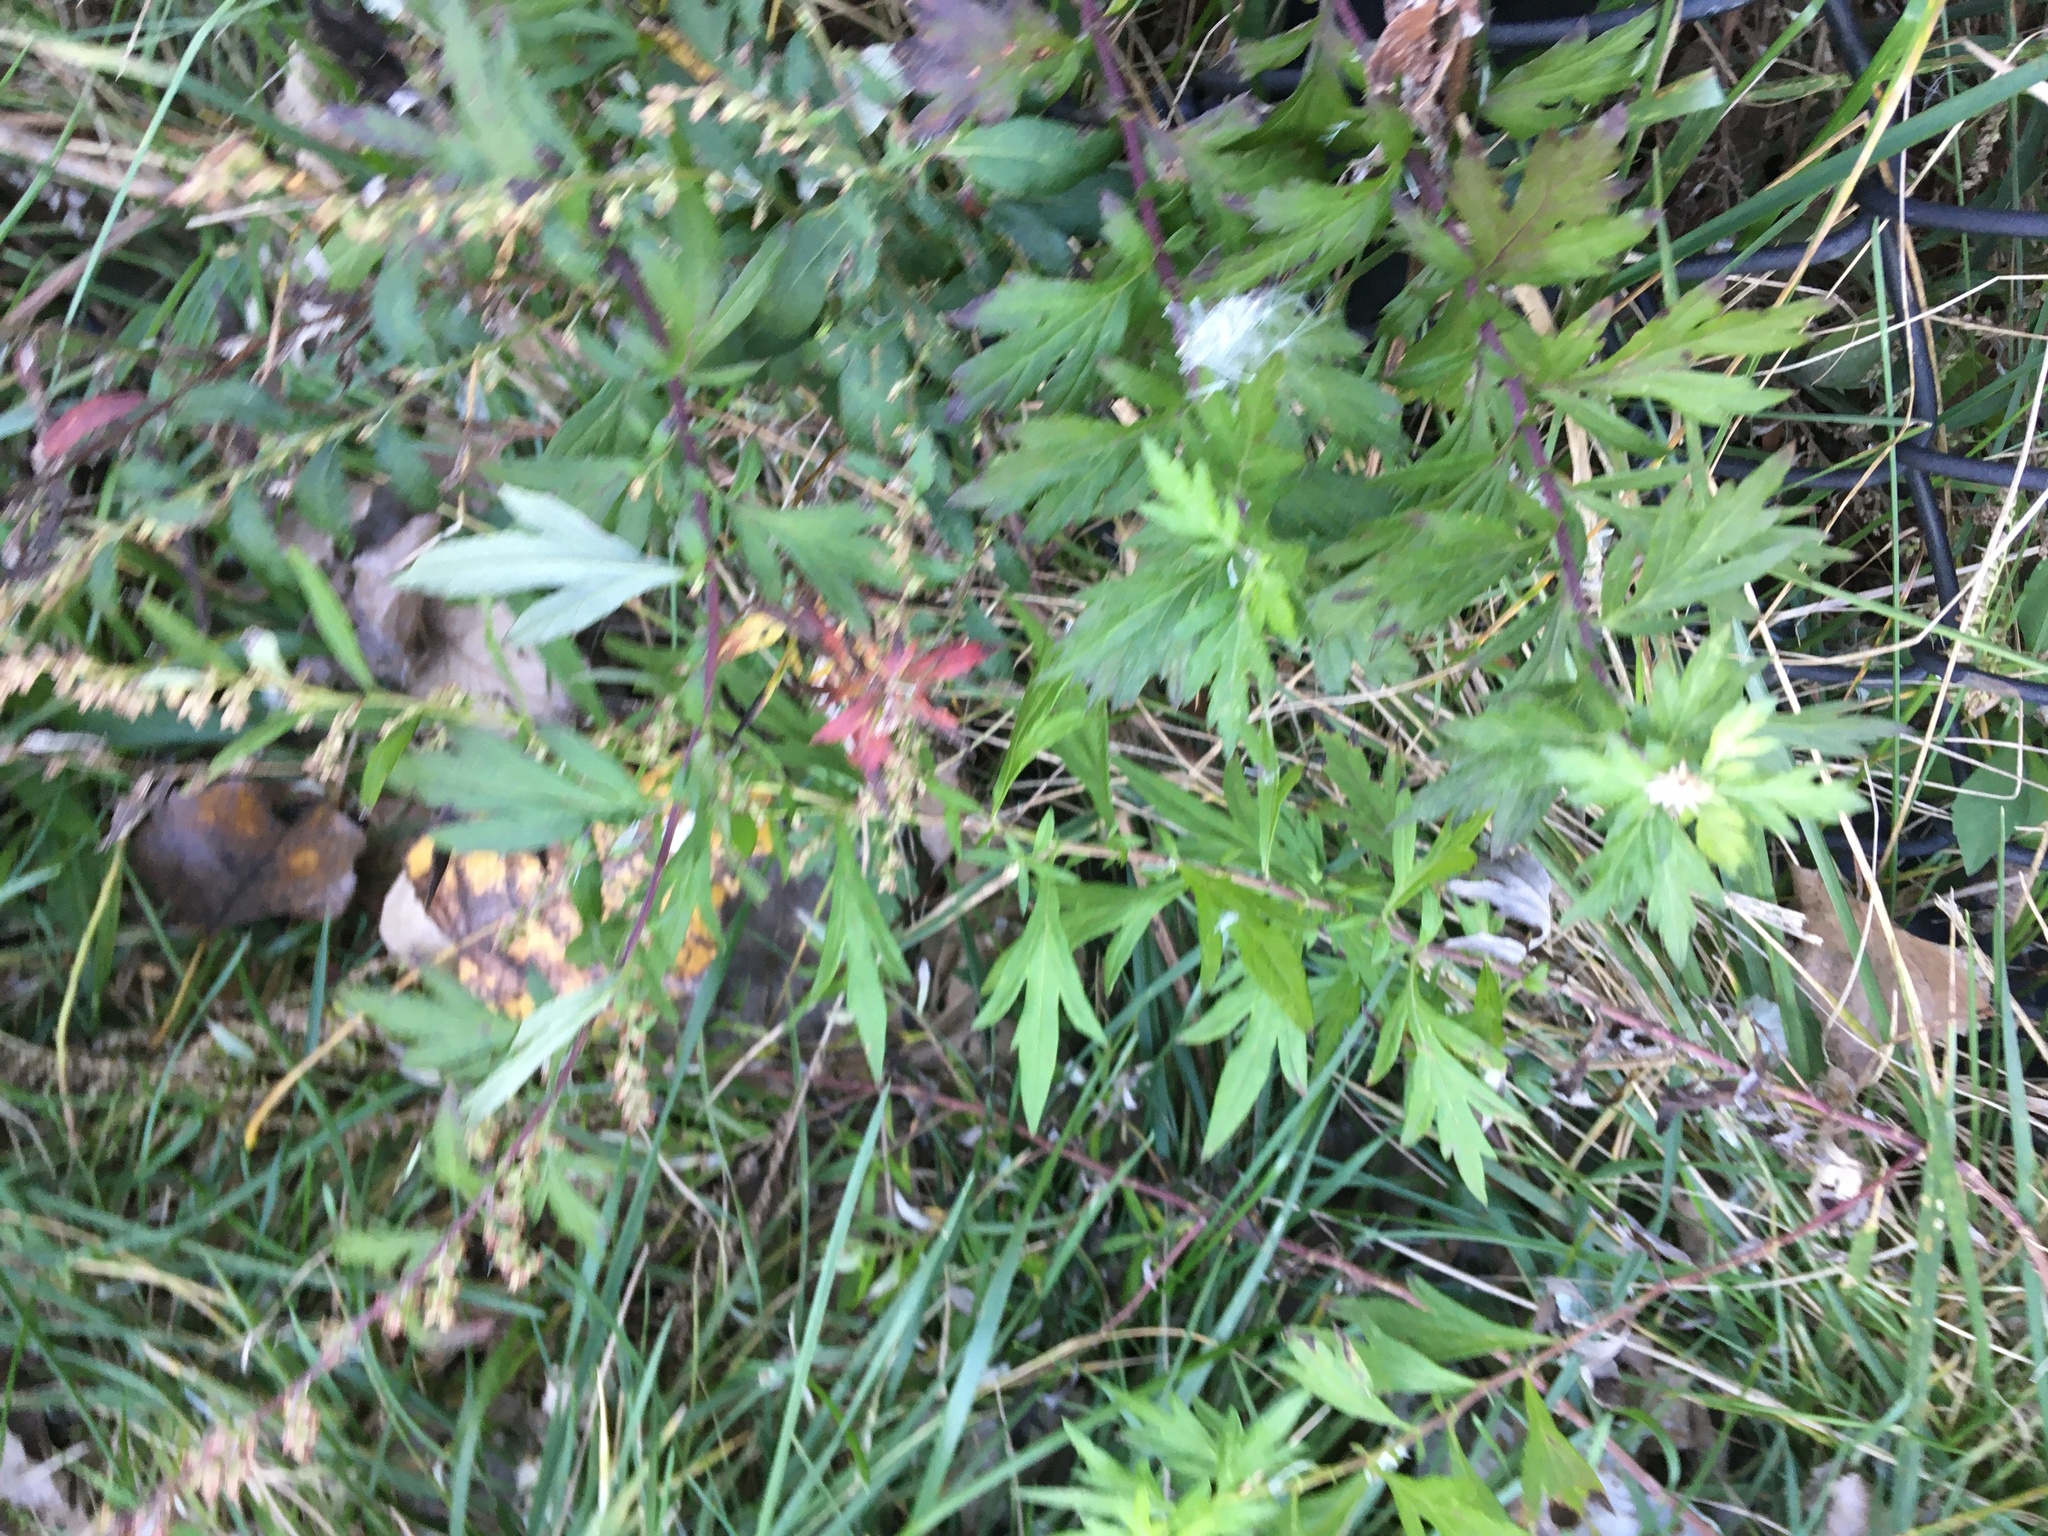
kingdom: Plantae
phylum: Tracheophyta
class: Magnoliopsida
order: Asterales
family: Asteraceae
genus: Artemisia
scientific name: Artemisia vulgaris
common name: Mugwort
